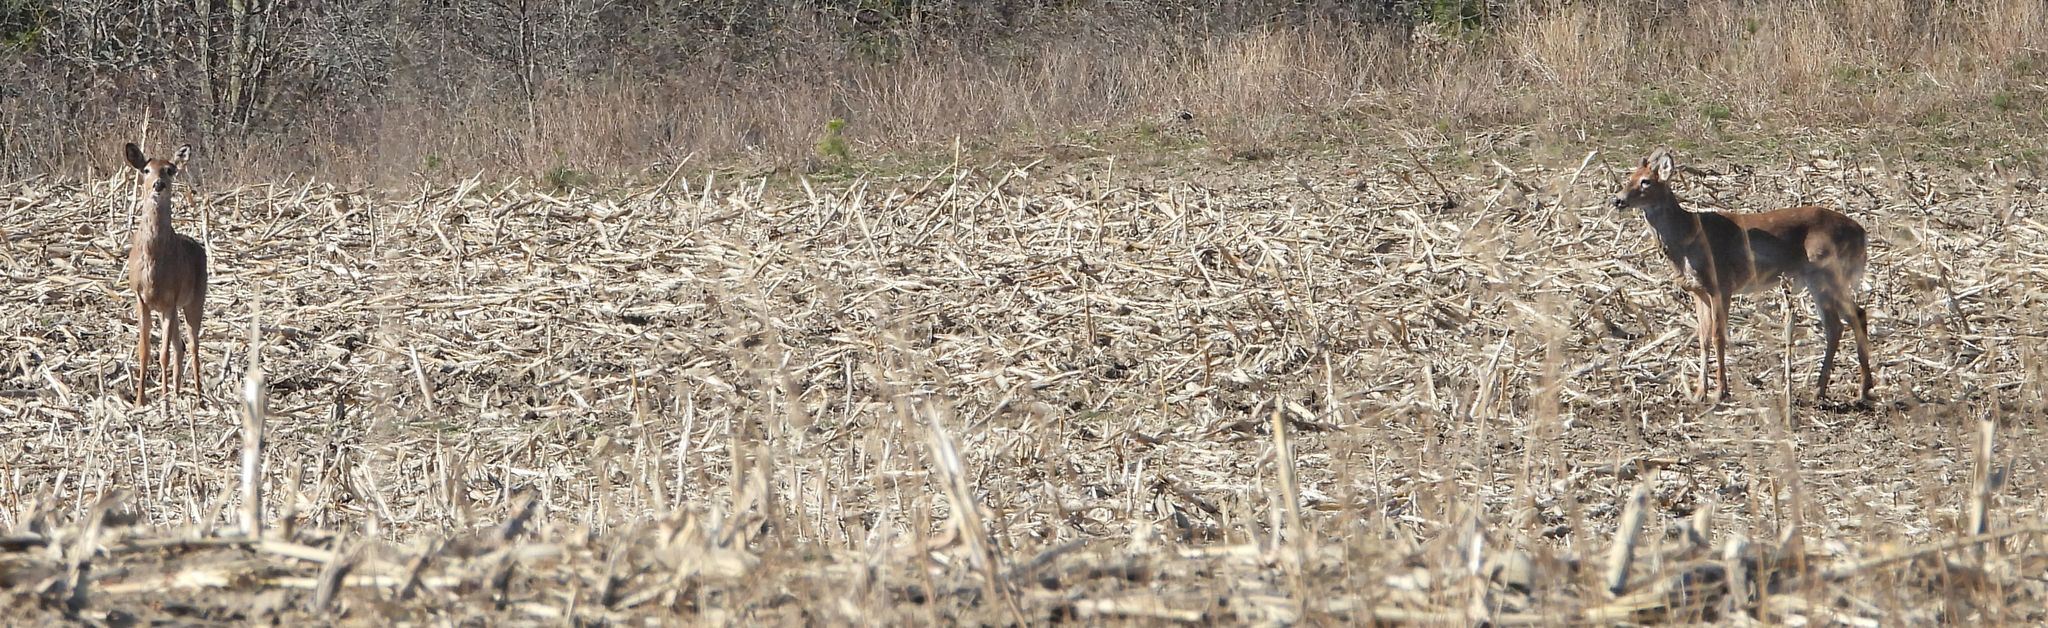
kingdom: Animalia
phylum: Chordata
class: Mammalia
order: Artiodactyla
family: Cervidae
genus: Odocoileus
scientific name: Odocoileus virginianus
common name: White-tailed deer
